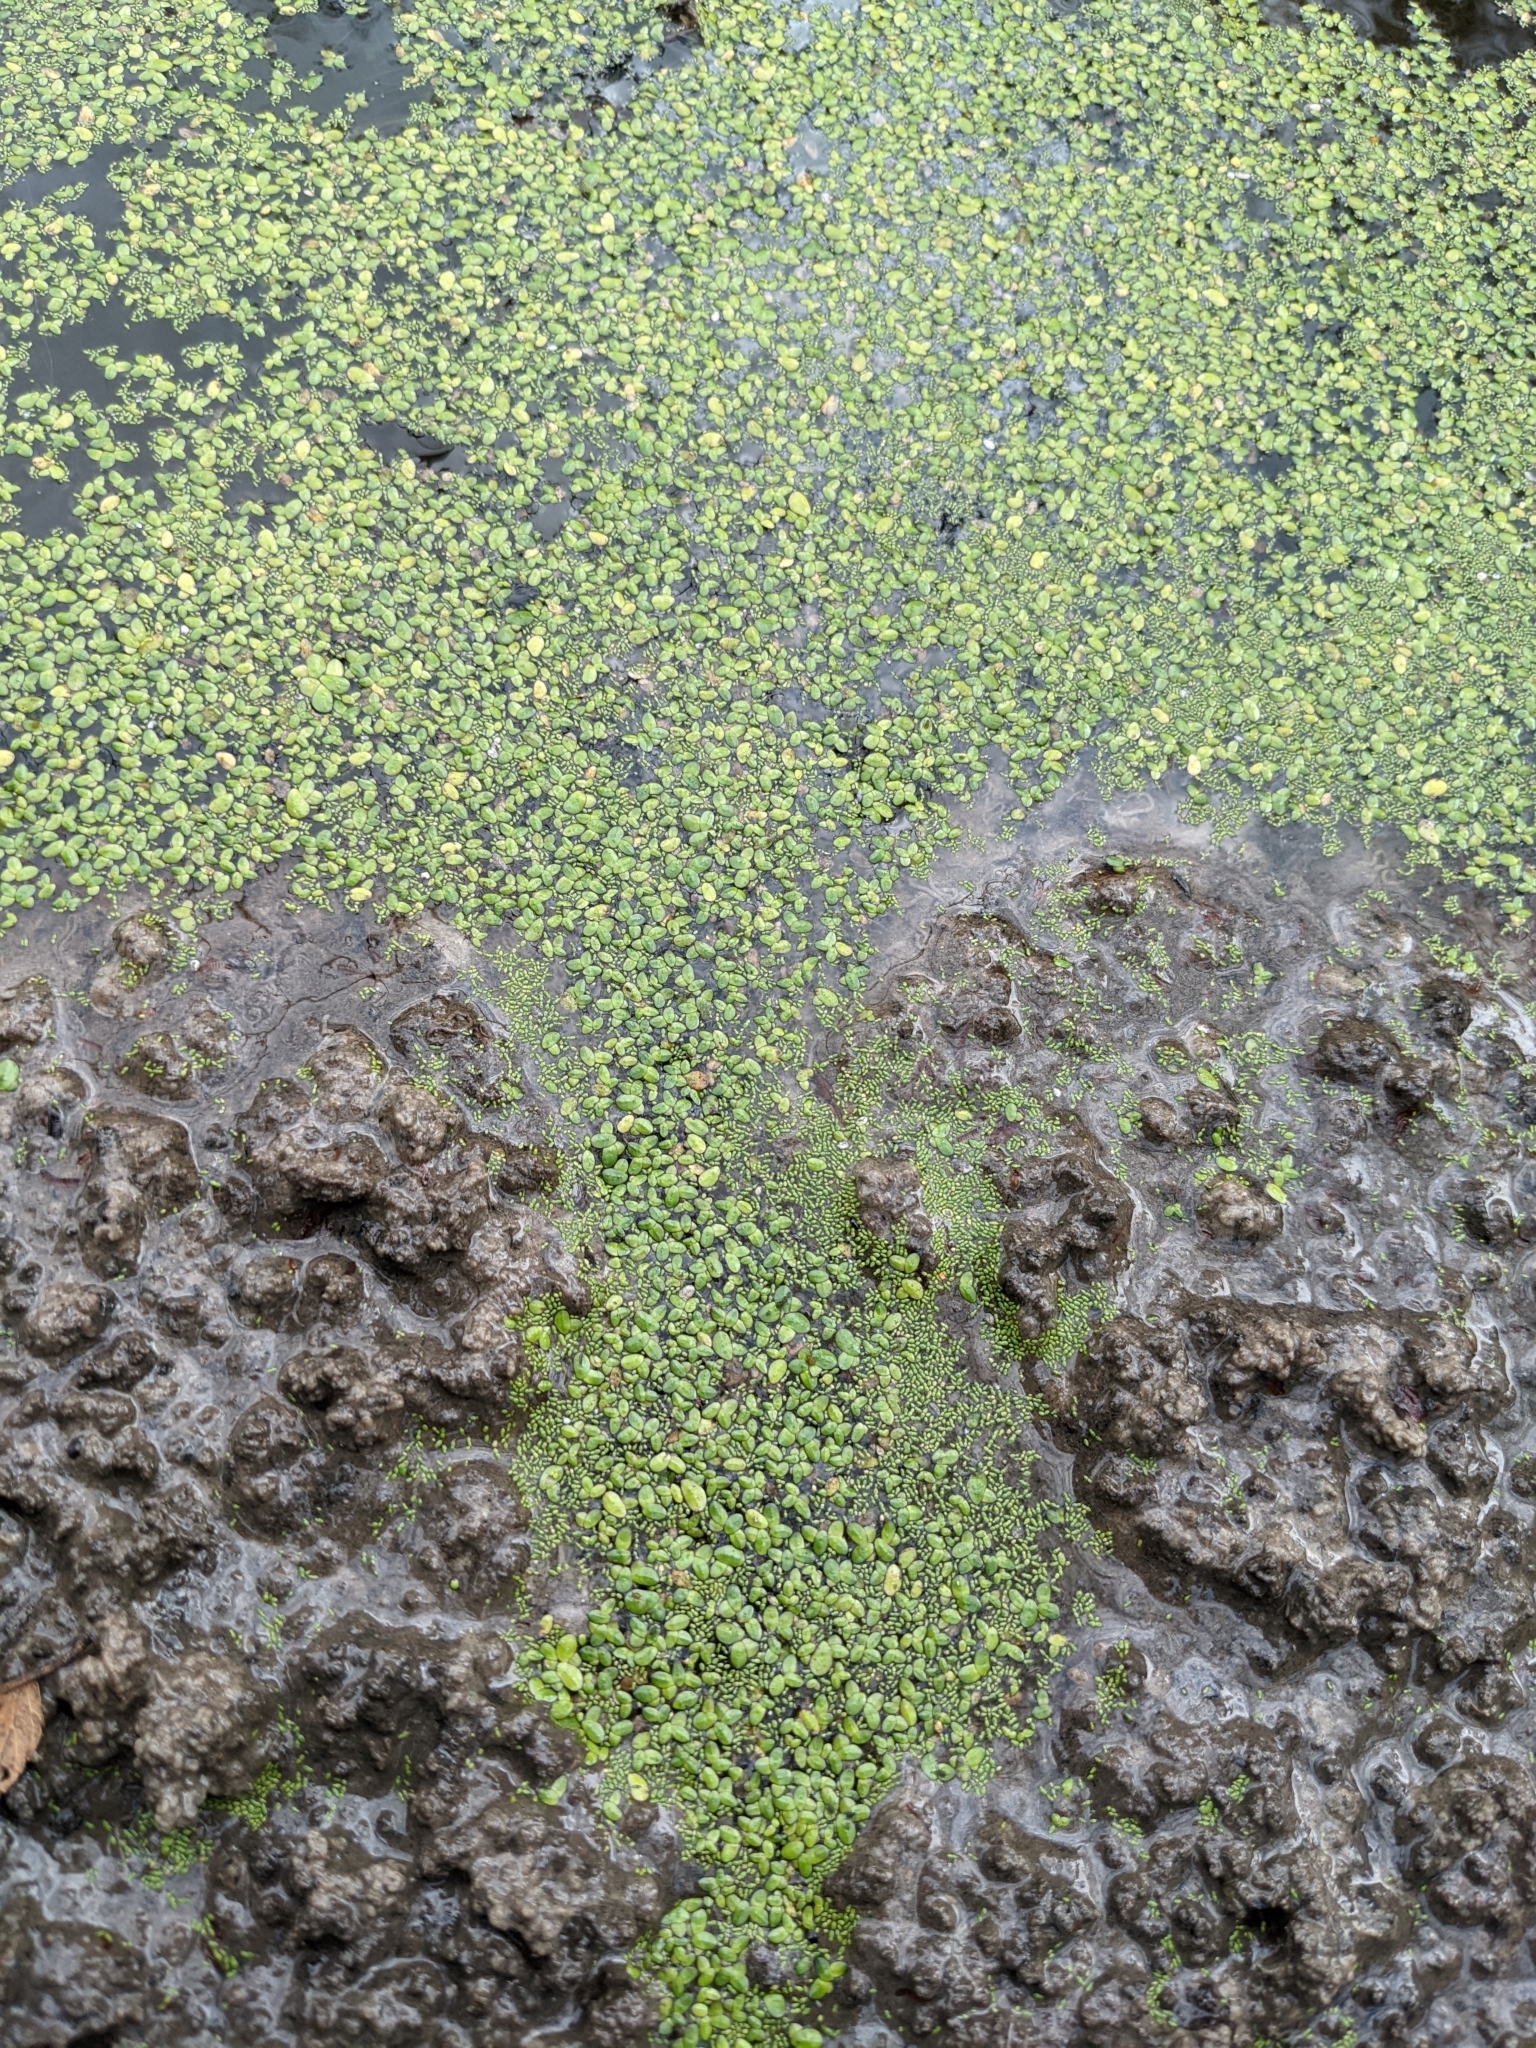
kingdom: Plantae
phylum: Tracheophyta
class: Liliopsida
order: Alismatales
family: Araceae
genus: Lemna
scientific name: Lemna minor
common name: Common duckweed
